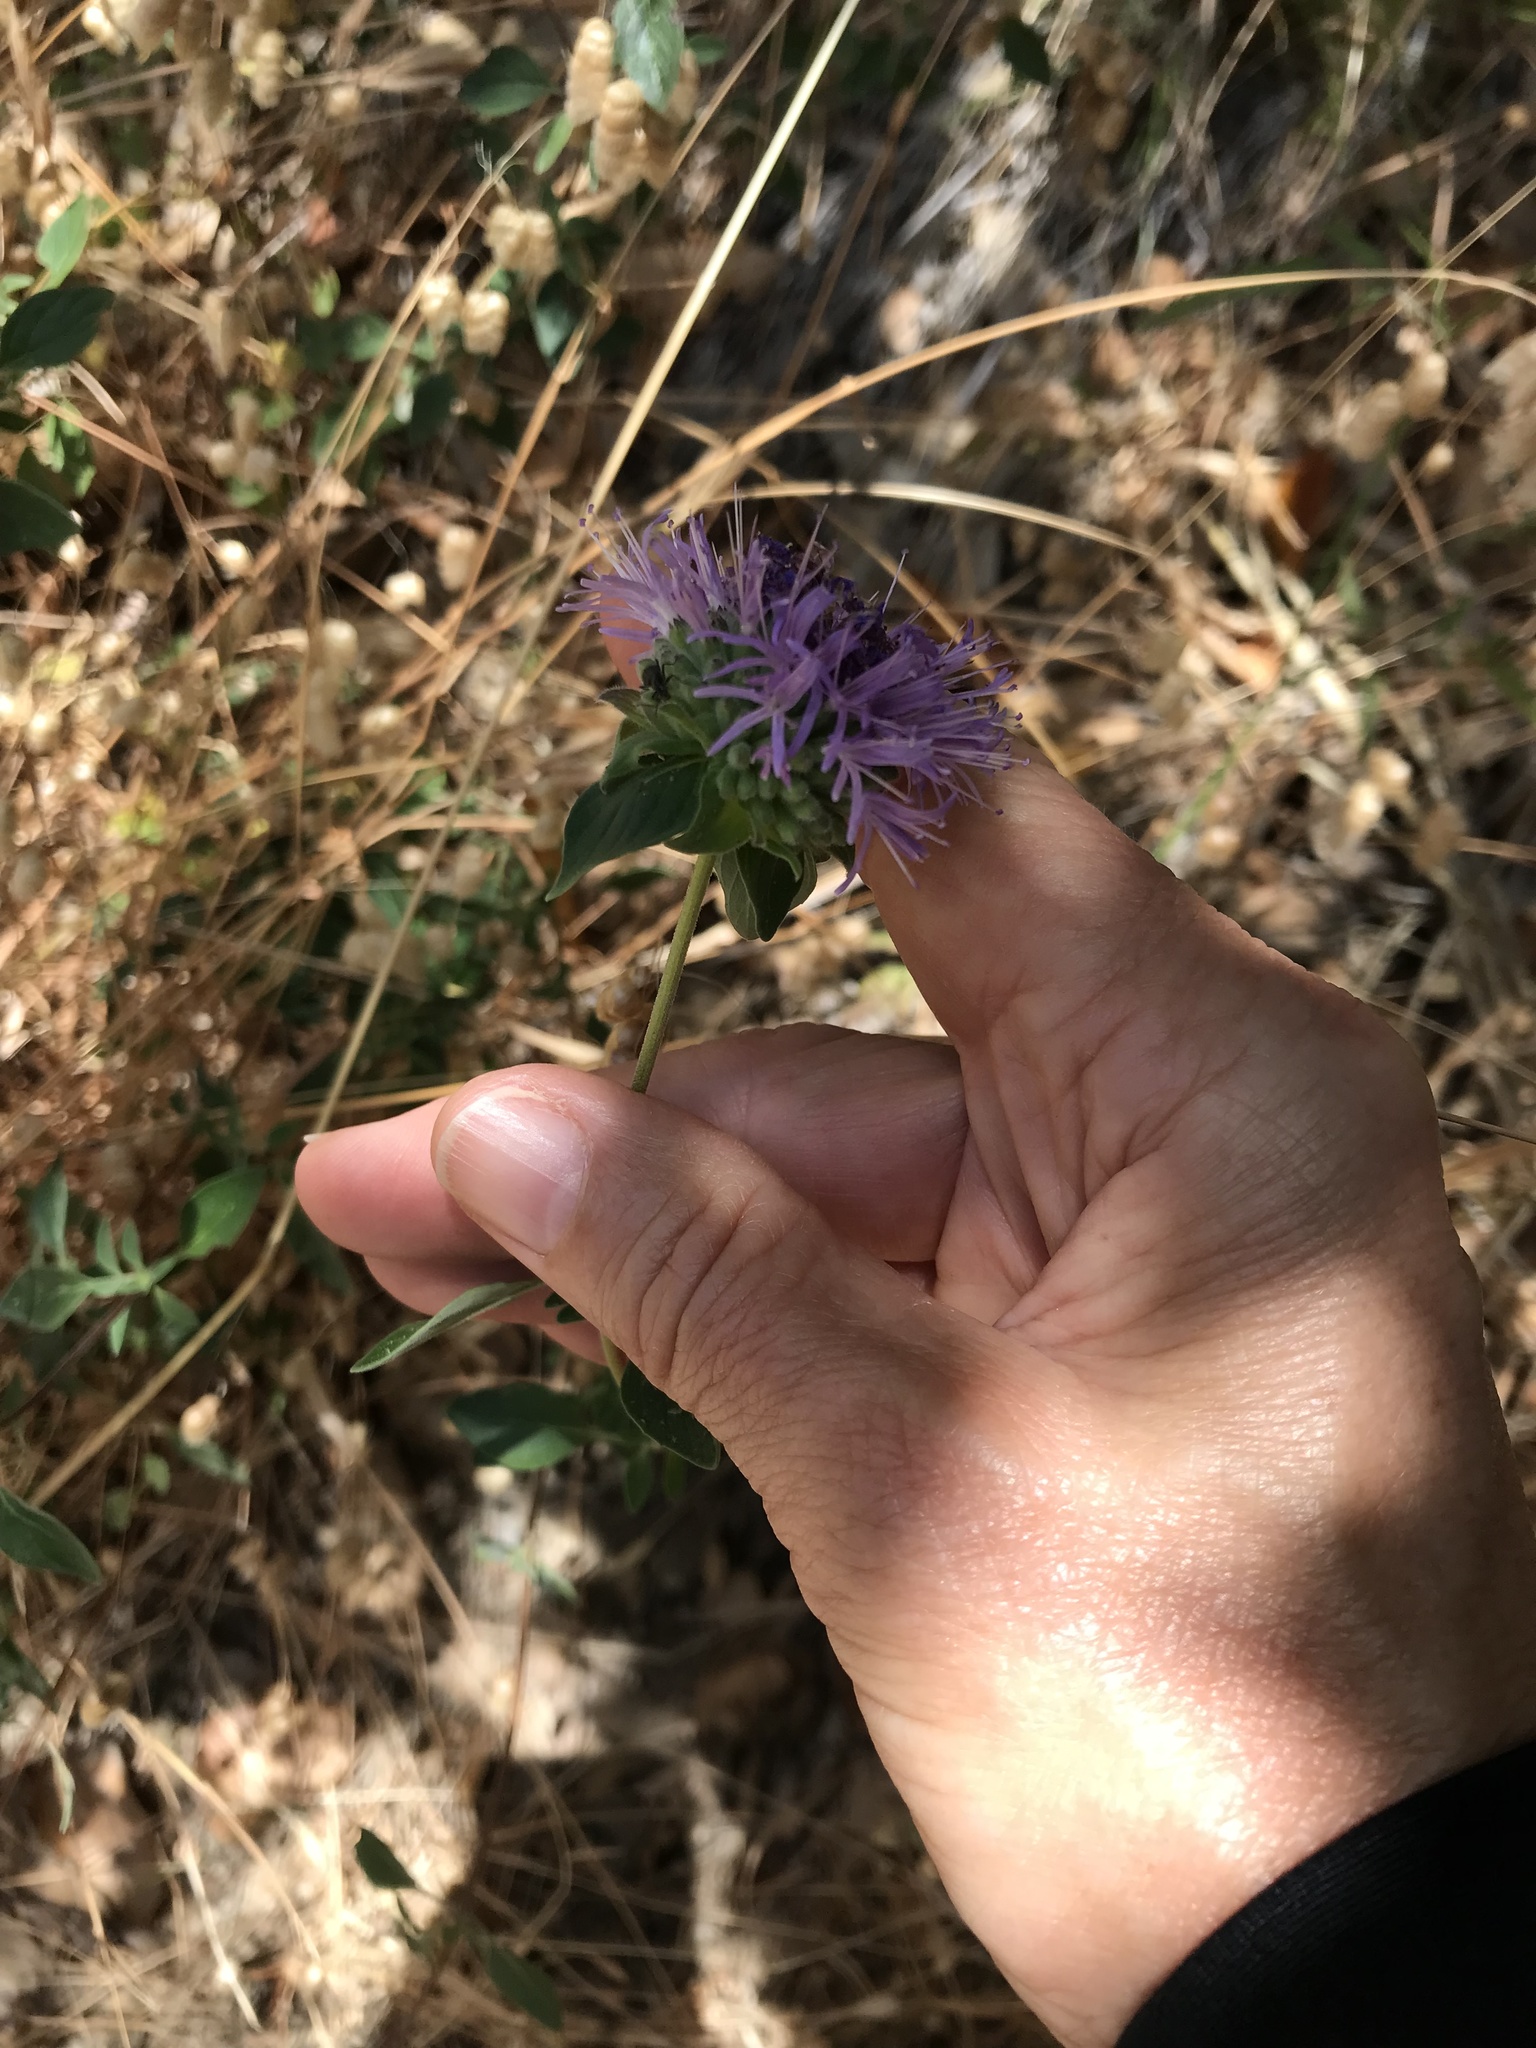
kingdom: Plantae
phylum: Tracheophyta
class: Magnoliopsida
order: Lamiales
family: Lamiaceae
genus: Monardella
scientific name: Monardella odoratissima
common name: Pacific monardella
